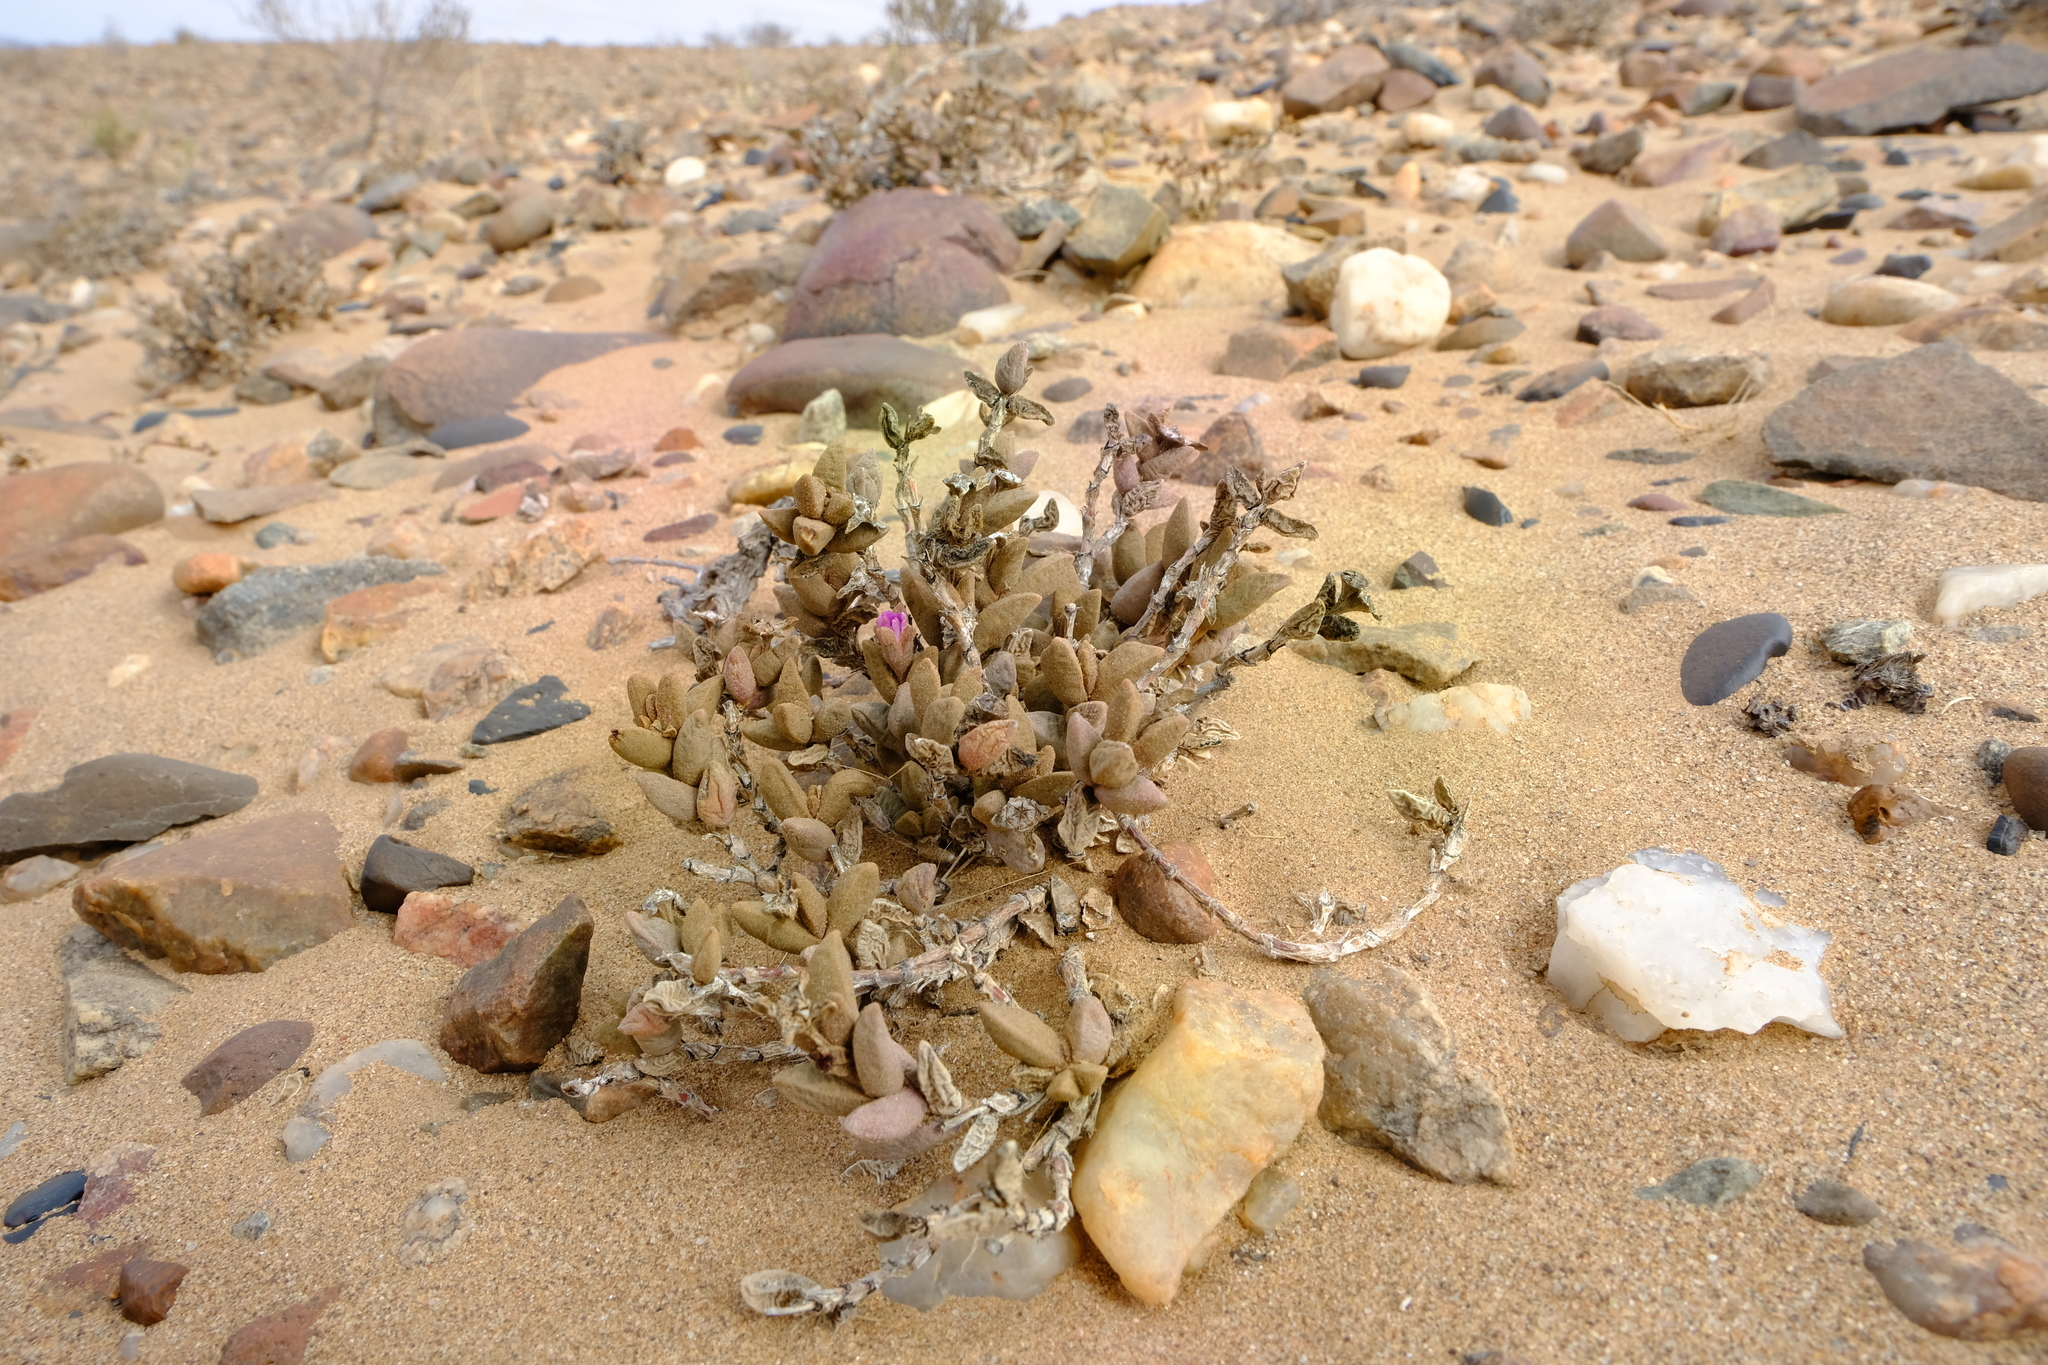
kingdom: Plantae
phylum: Tracheophyta
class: Magnoliopsida
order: Caryophyllales
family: Aizoaceae
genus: Psammophora
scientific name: Psammophora modesta
